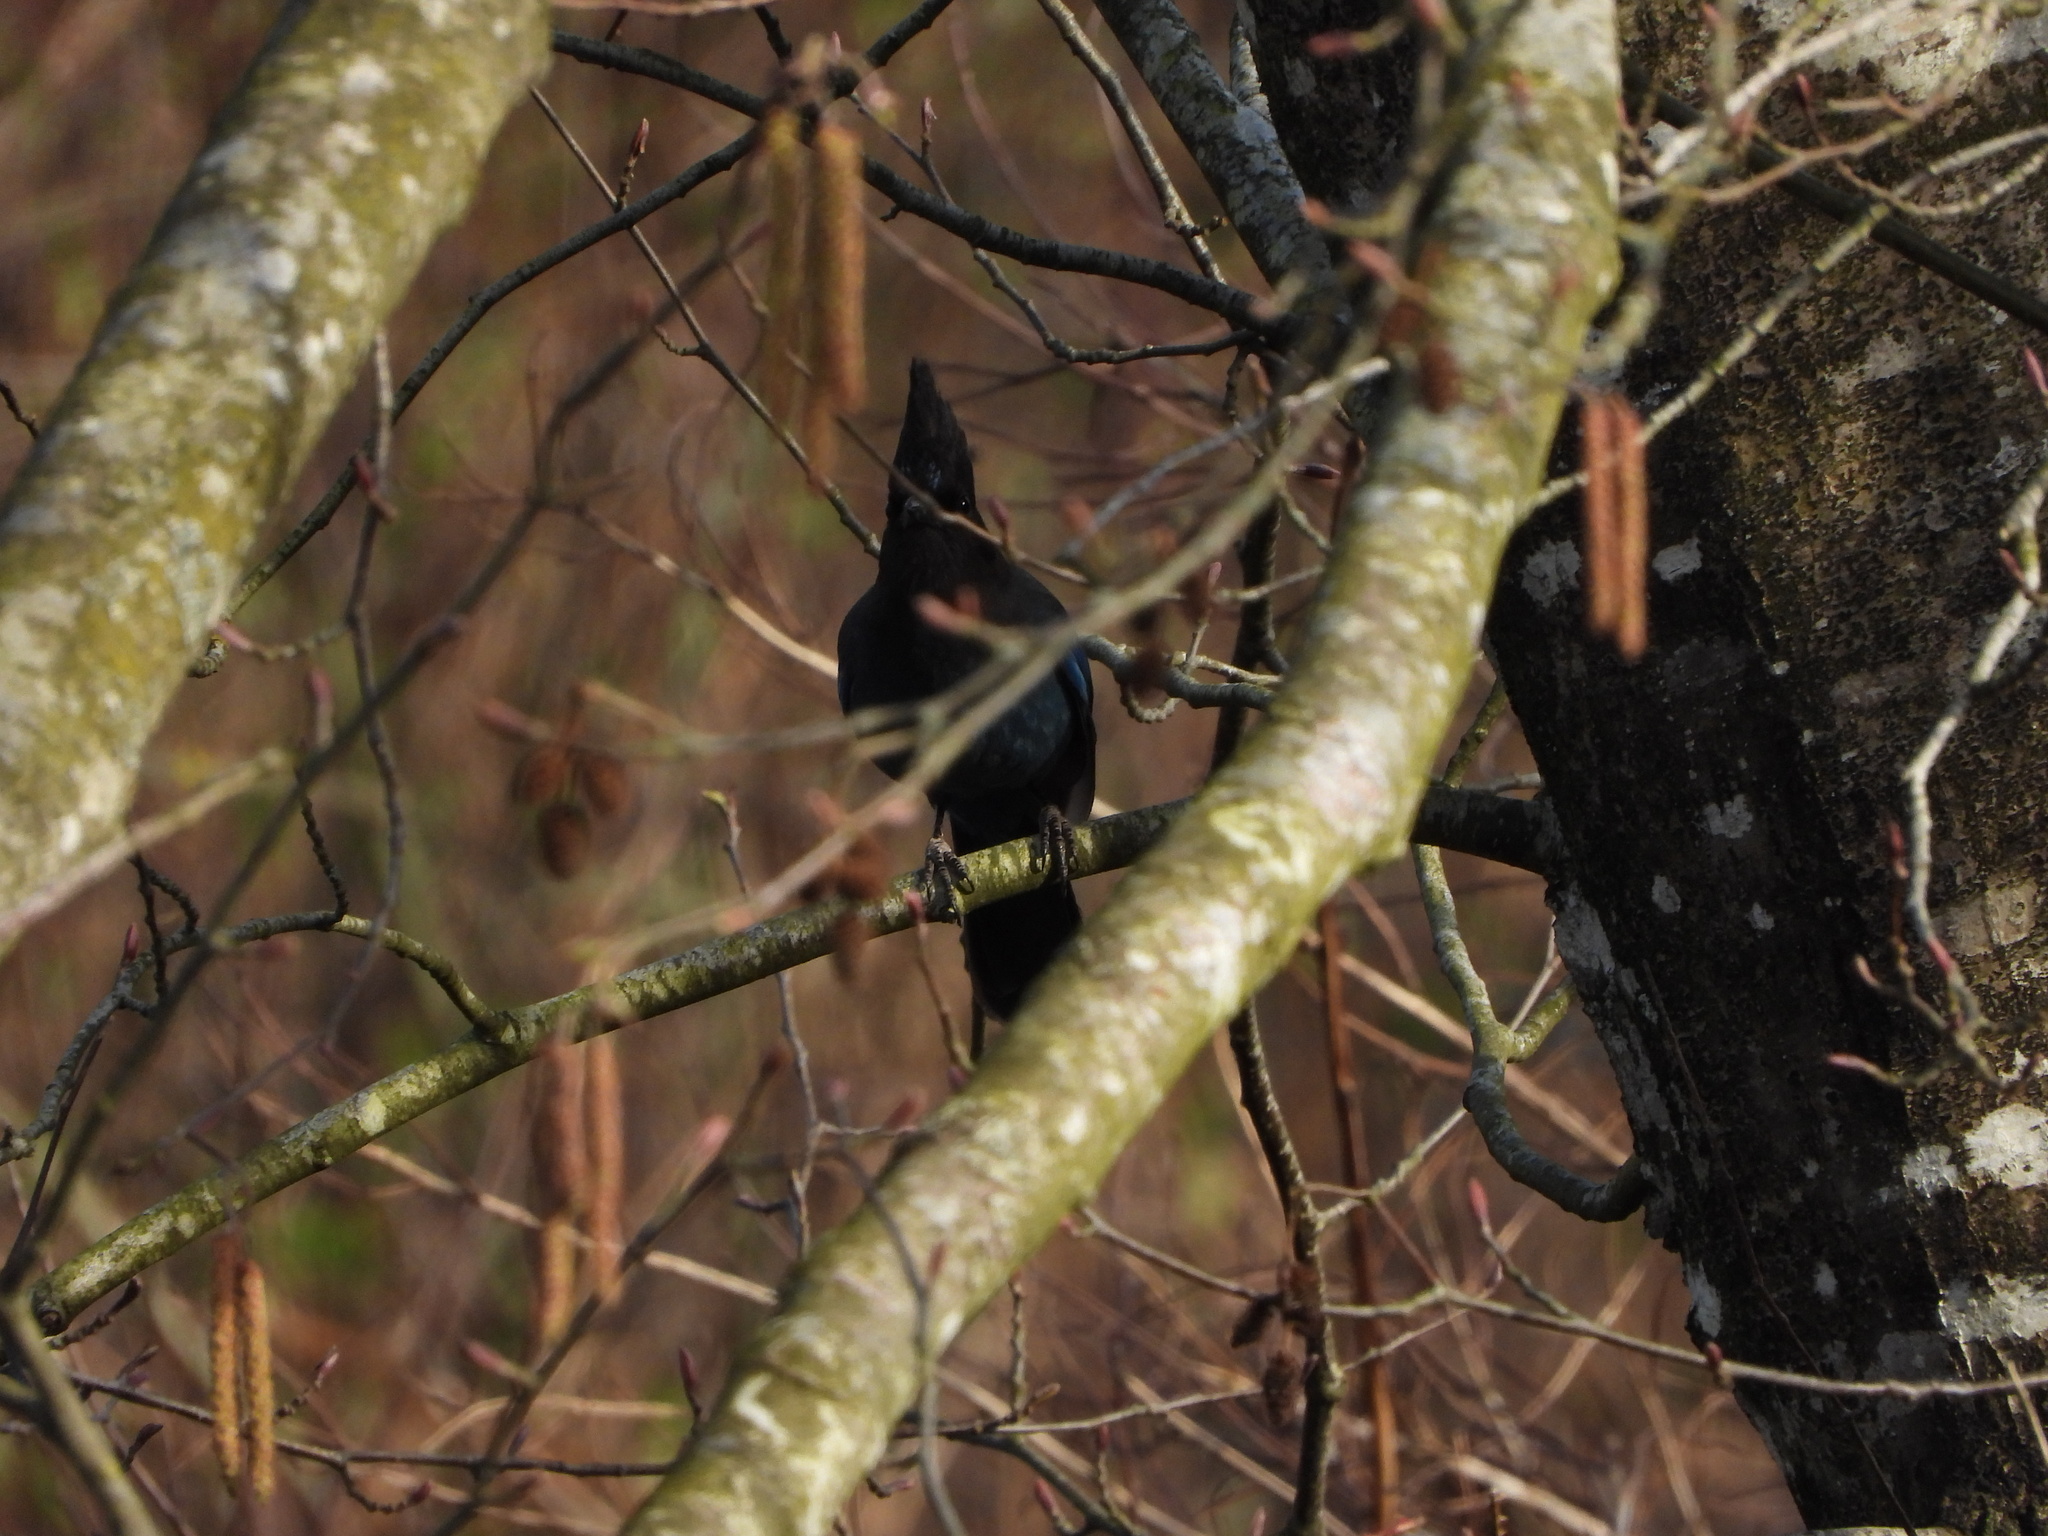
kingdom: Animalia
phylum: Chordata
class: Aves
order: Passeriformes
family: Corvidae
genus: Cyanocitta
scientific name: Cyanocitta stelleri
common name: Steller's jay
